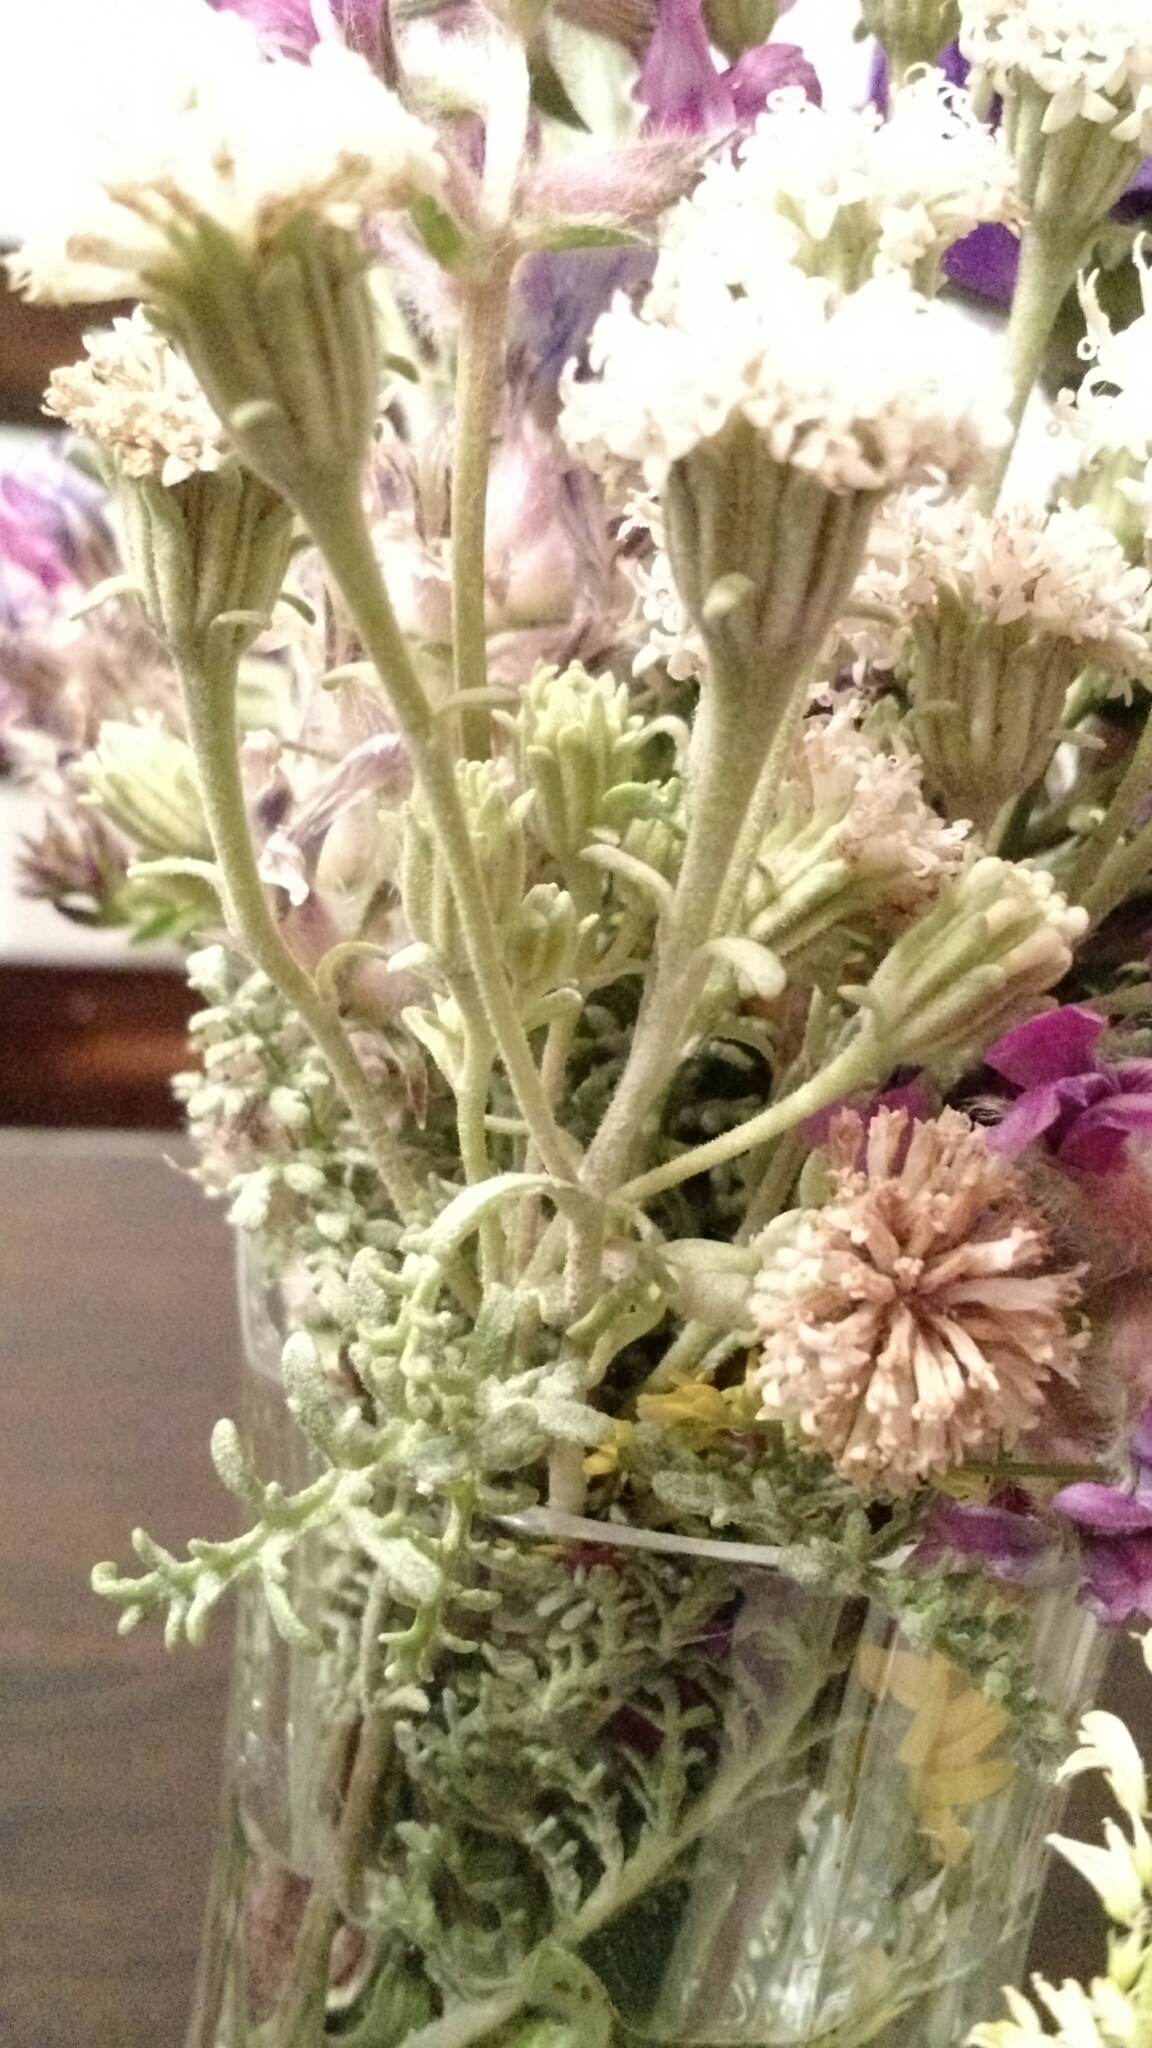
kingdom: Plantae
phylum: Tracheophyta
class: Magnoliopsida
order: Asterales
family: Asteraceae
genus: Chaenactis
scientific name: Chaenactis douglasii
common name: Hoary pincushion
